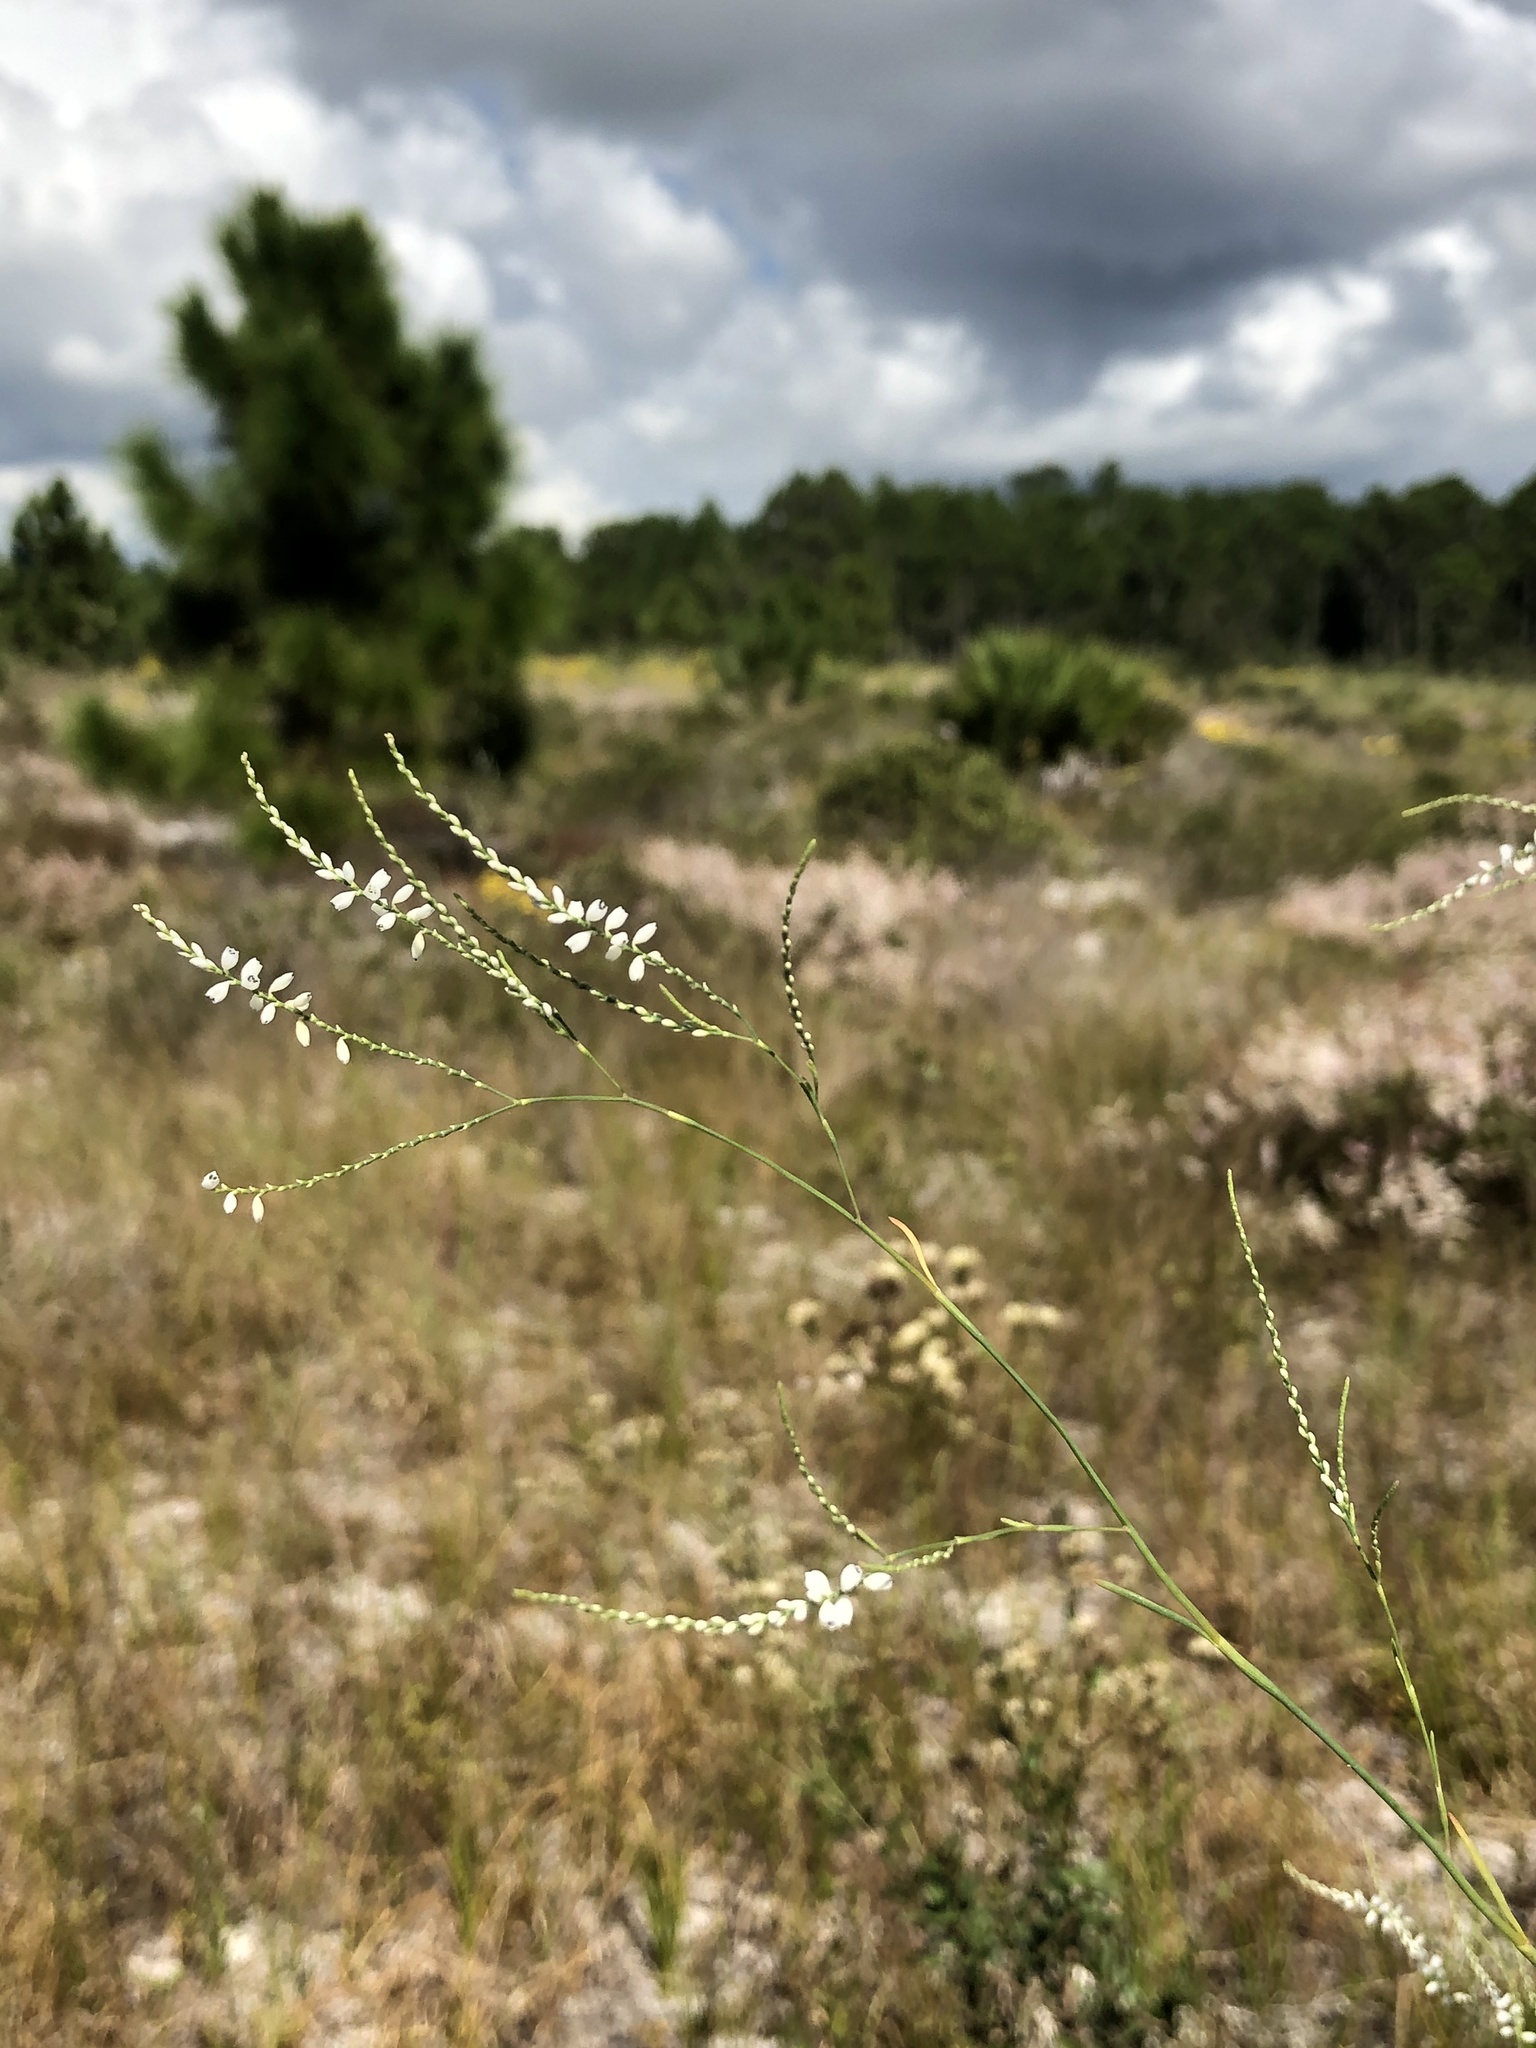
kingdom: Plantae
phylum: Tracheophyta
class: Magnoliopsida
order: Caryophyllales
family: Polygonaceae
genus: Polygonella
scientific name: Polygonella gracilis
